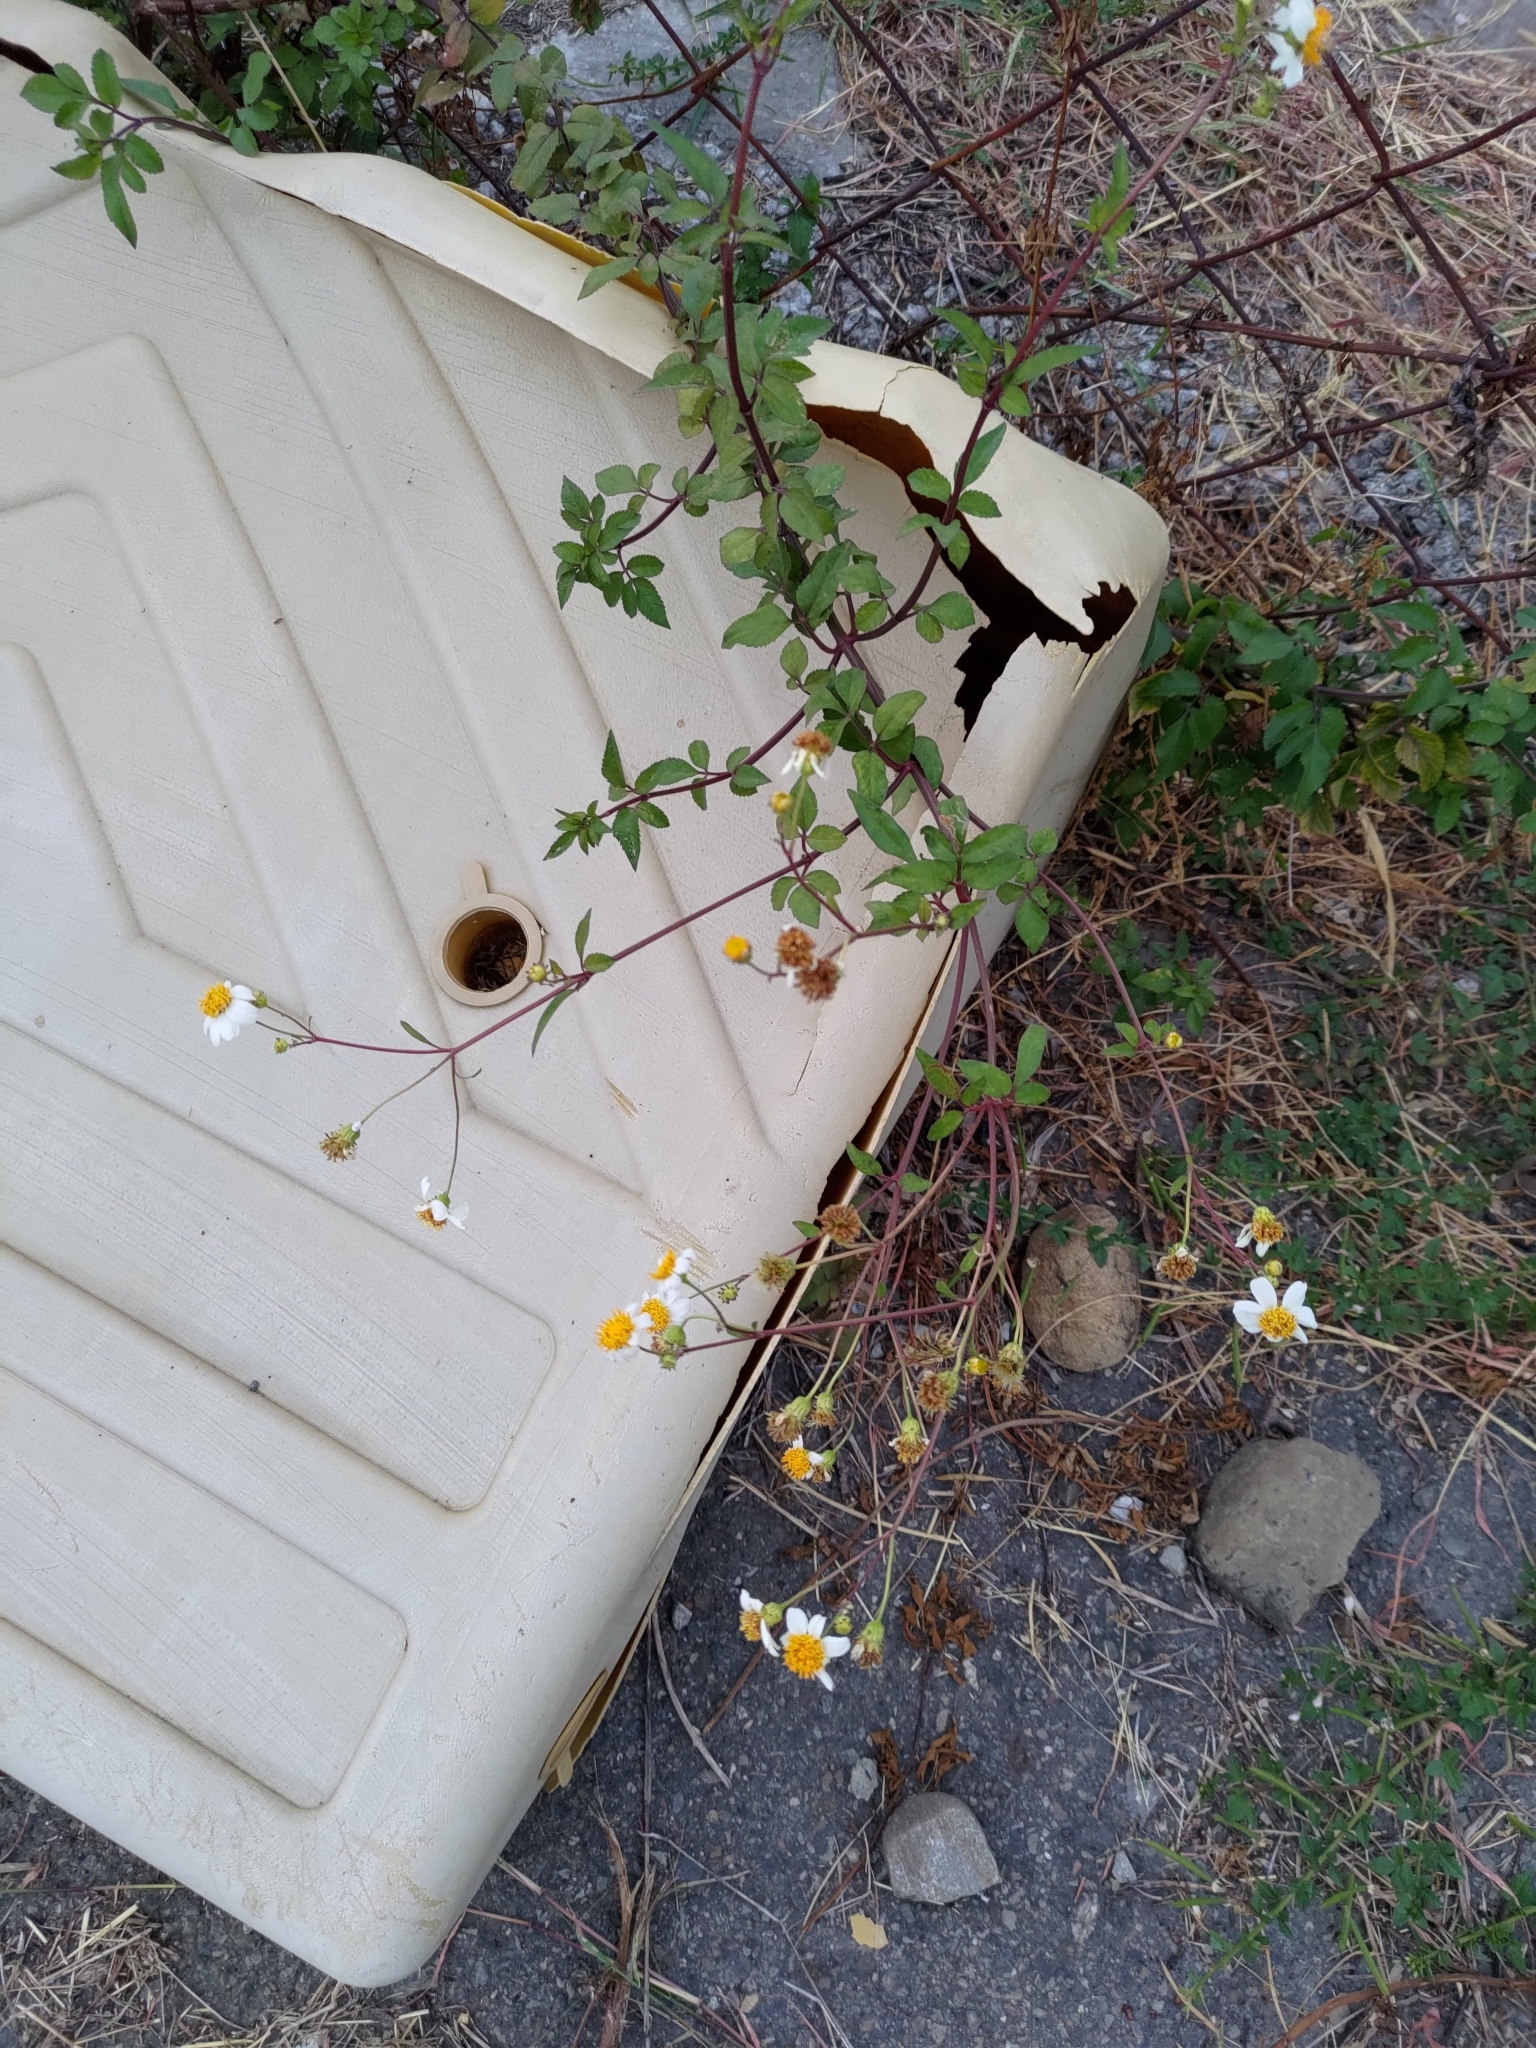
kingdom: Plantae
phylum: Tracheophyta
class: Magnoliopsida
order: Asterales
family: Asteraceae
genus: Bidens
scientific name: Bidens alba
